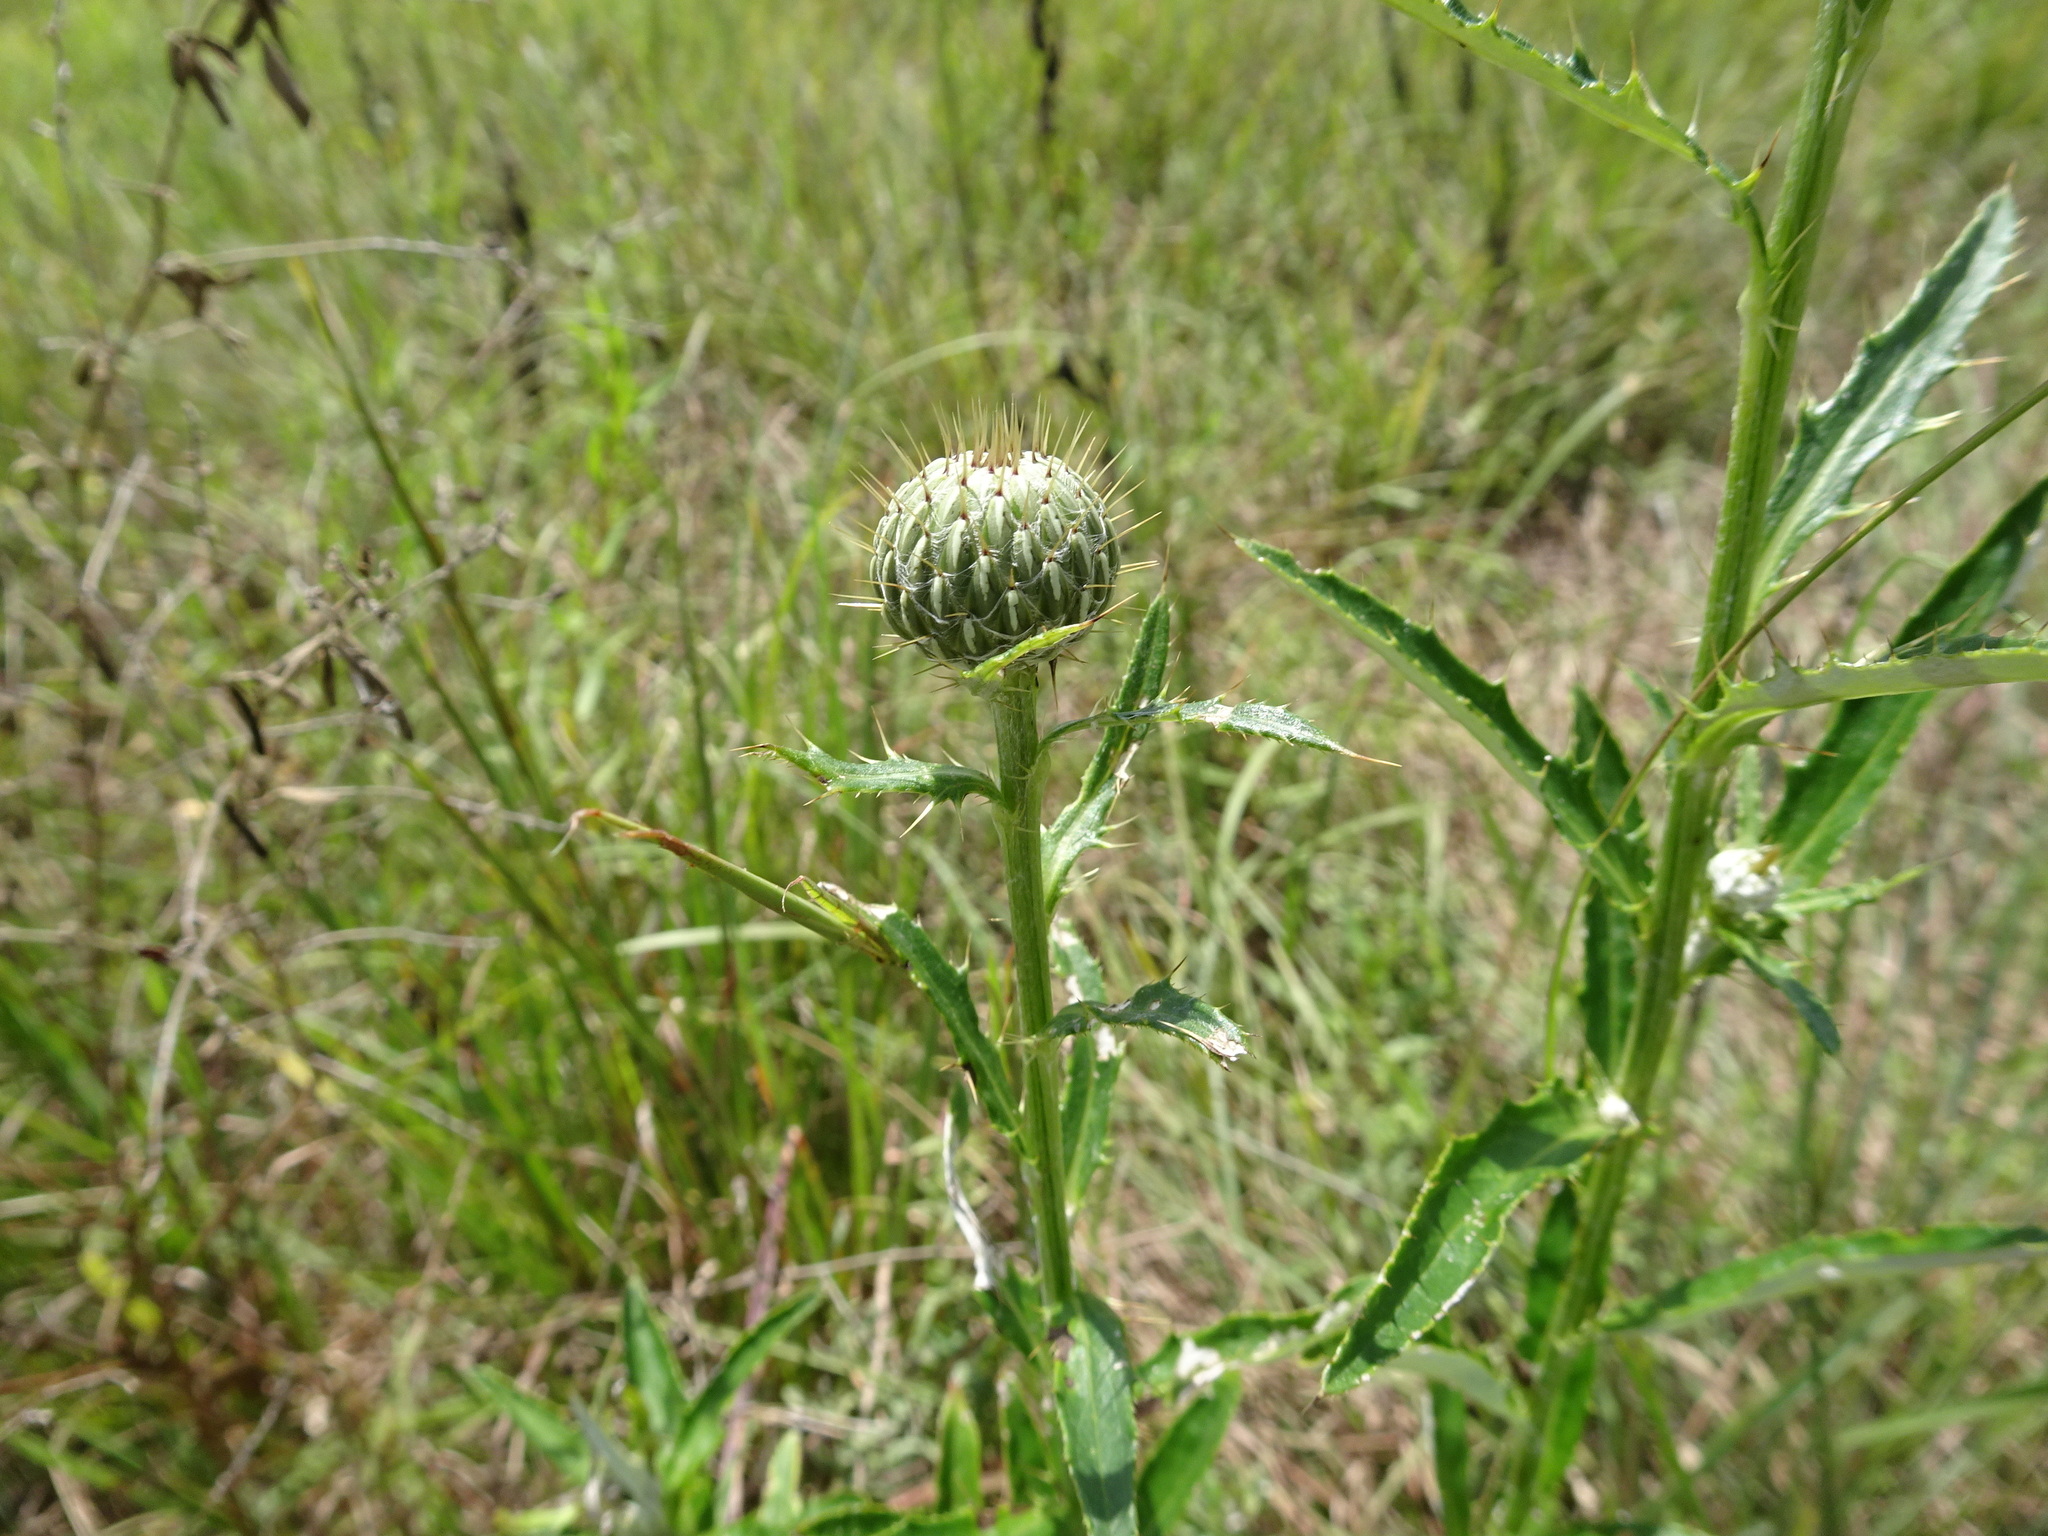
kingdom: Plantae
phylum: Tracheophyta
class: Magnoliopsida
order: Asterales
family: Asteraceae
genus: Cirsium
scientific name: Cirsium altissimum
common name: Roadside thistle
